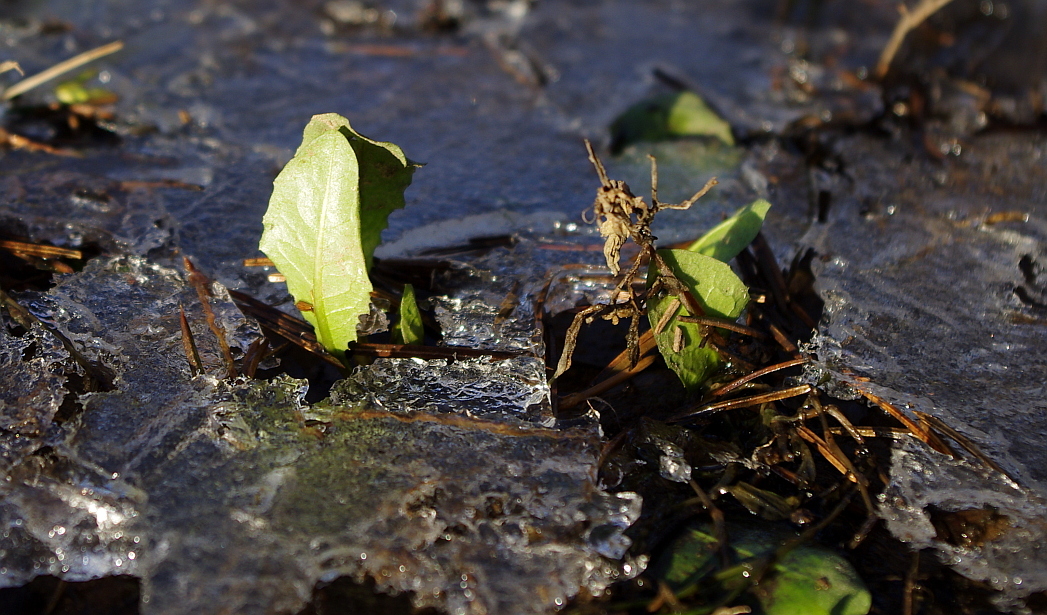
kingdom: Plantae
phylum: Tracheophyta
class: Magnoliopsida
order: Asterales
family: Asteraceae
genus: Taraxacum
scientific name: Taraxacum officinale
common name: Common dandelion
